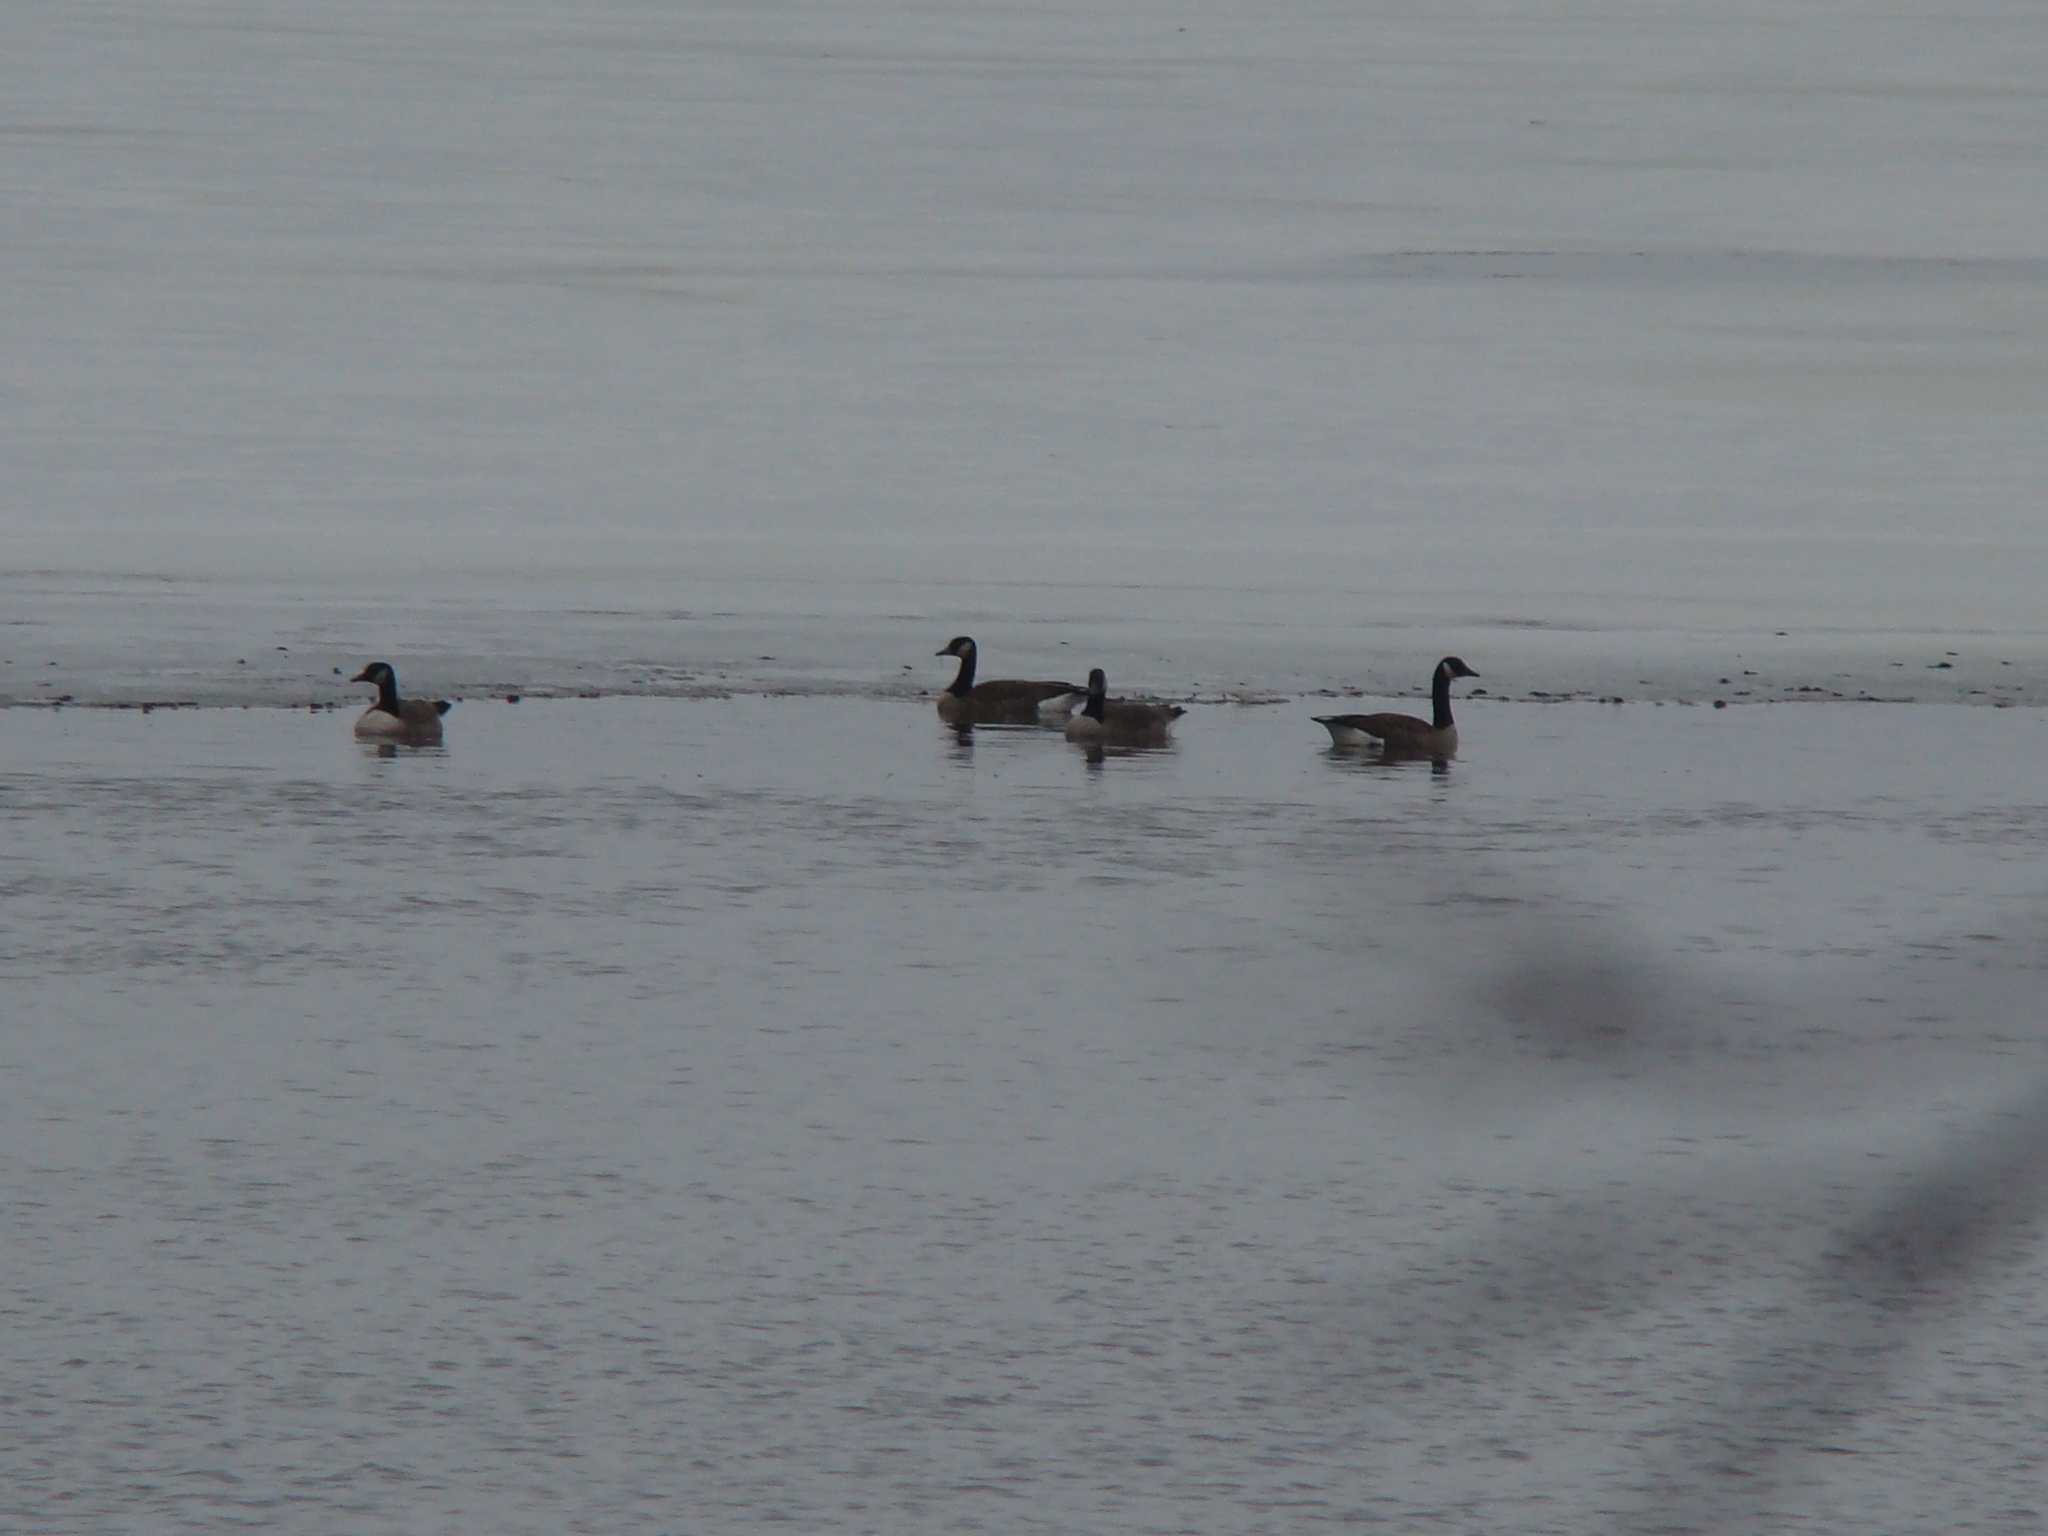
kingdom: Animalia
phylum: Chordata
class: Aves
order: Anseriformes
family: Anatidae
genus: Branta
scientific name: Branta canadensis
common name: Canada goose
